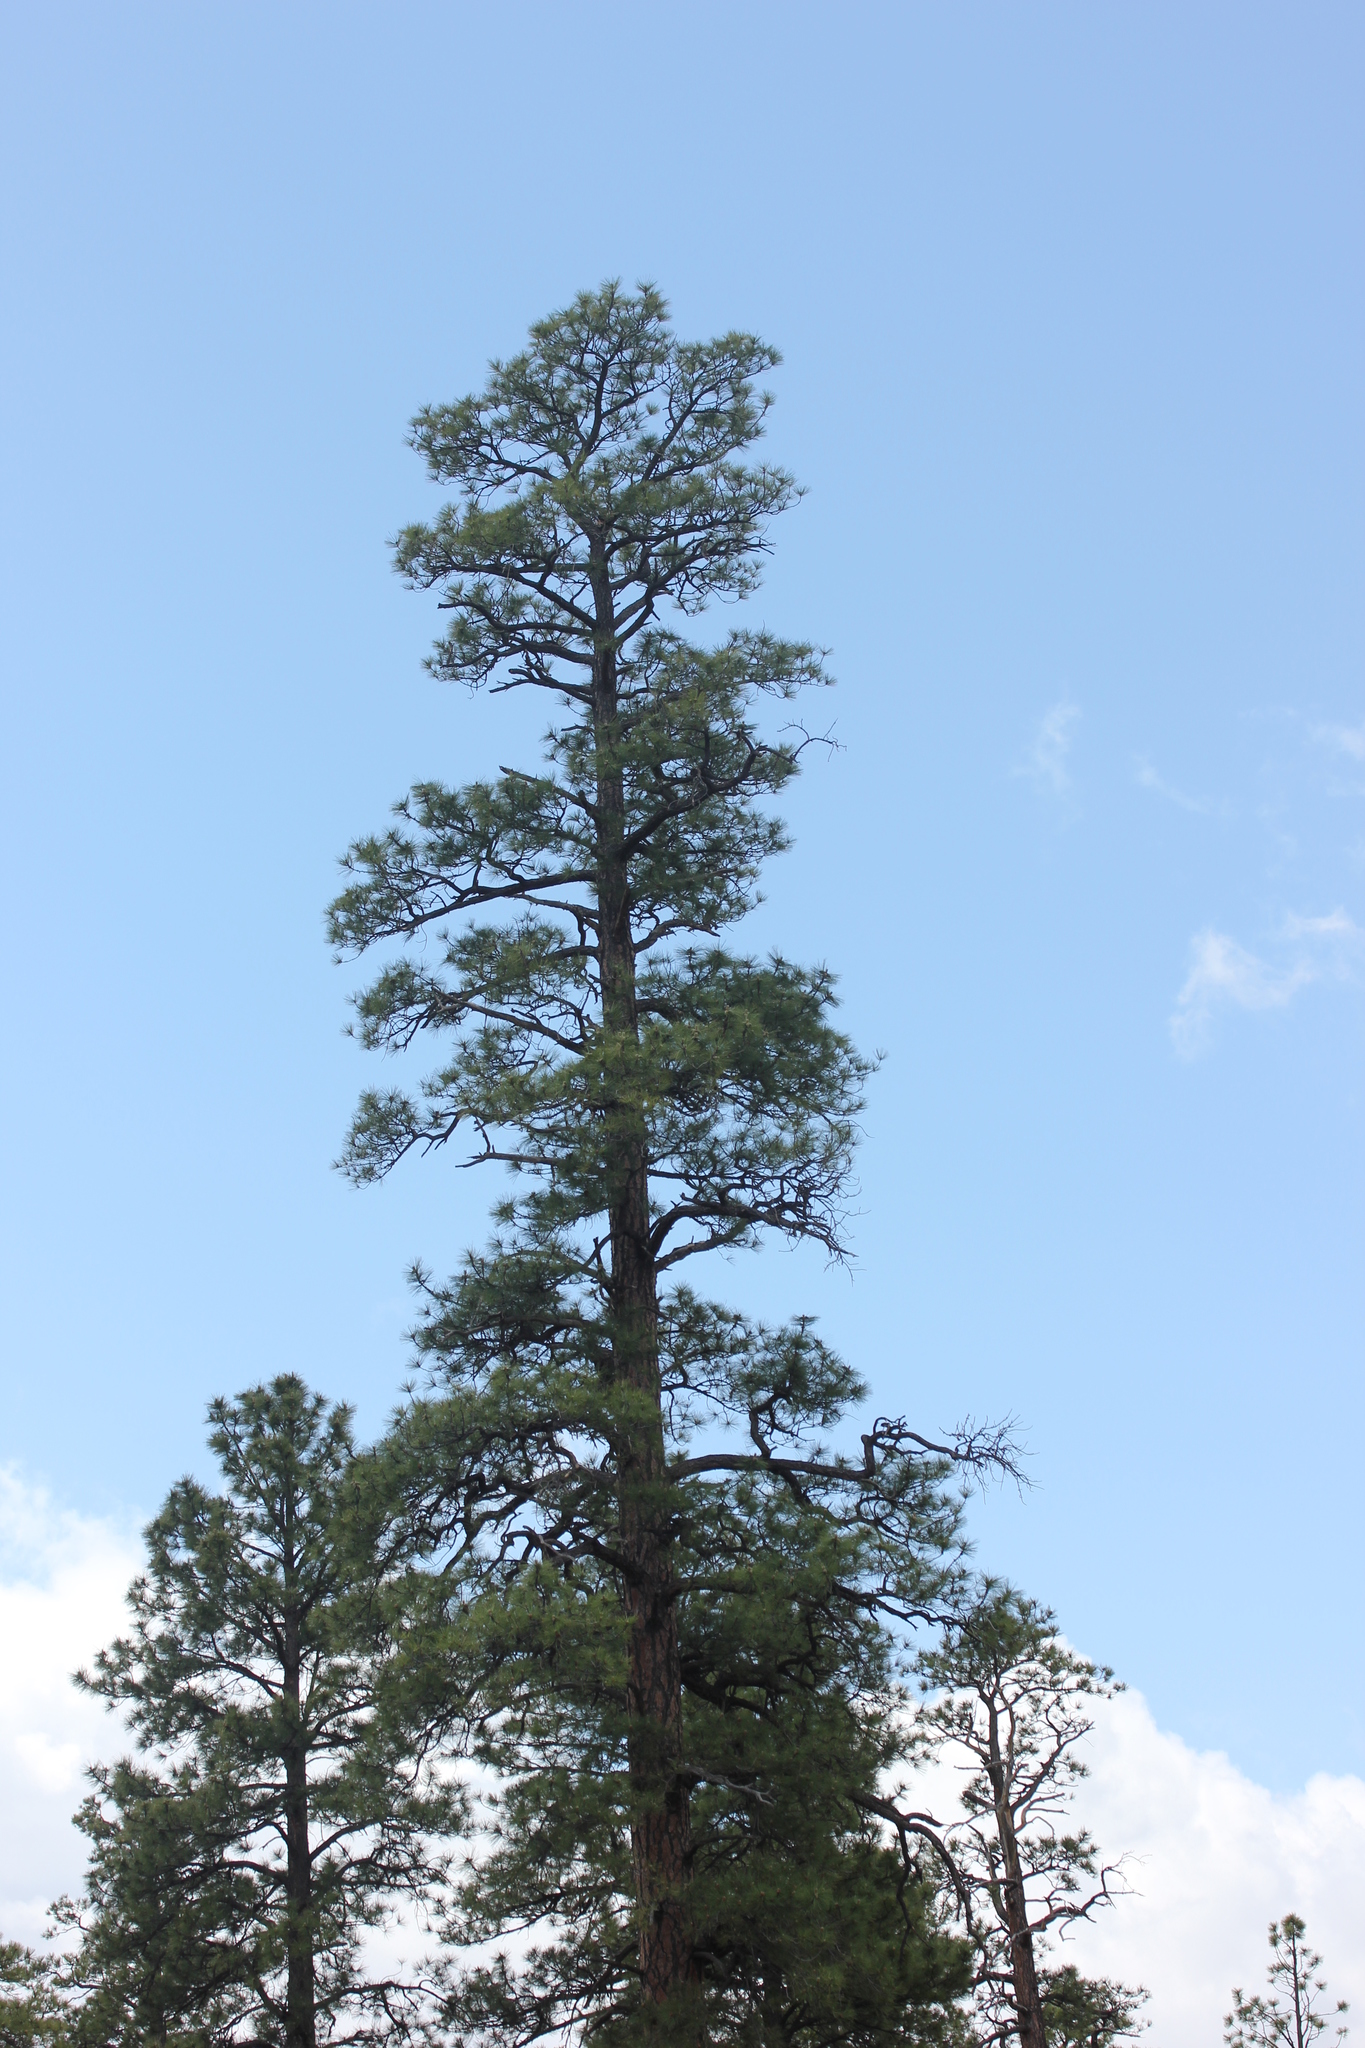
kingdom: Plantae
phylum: Tracheophyta
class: Pinopsida
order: Pinales
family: Pinaceae
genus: Pinus
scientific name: Pinus ponderosa
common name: Western yellow-pine
